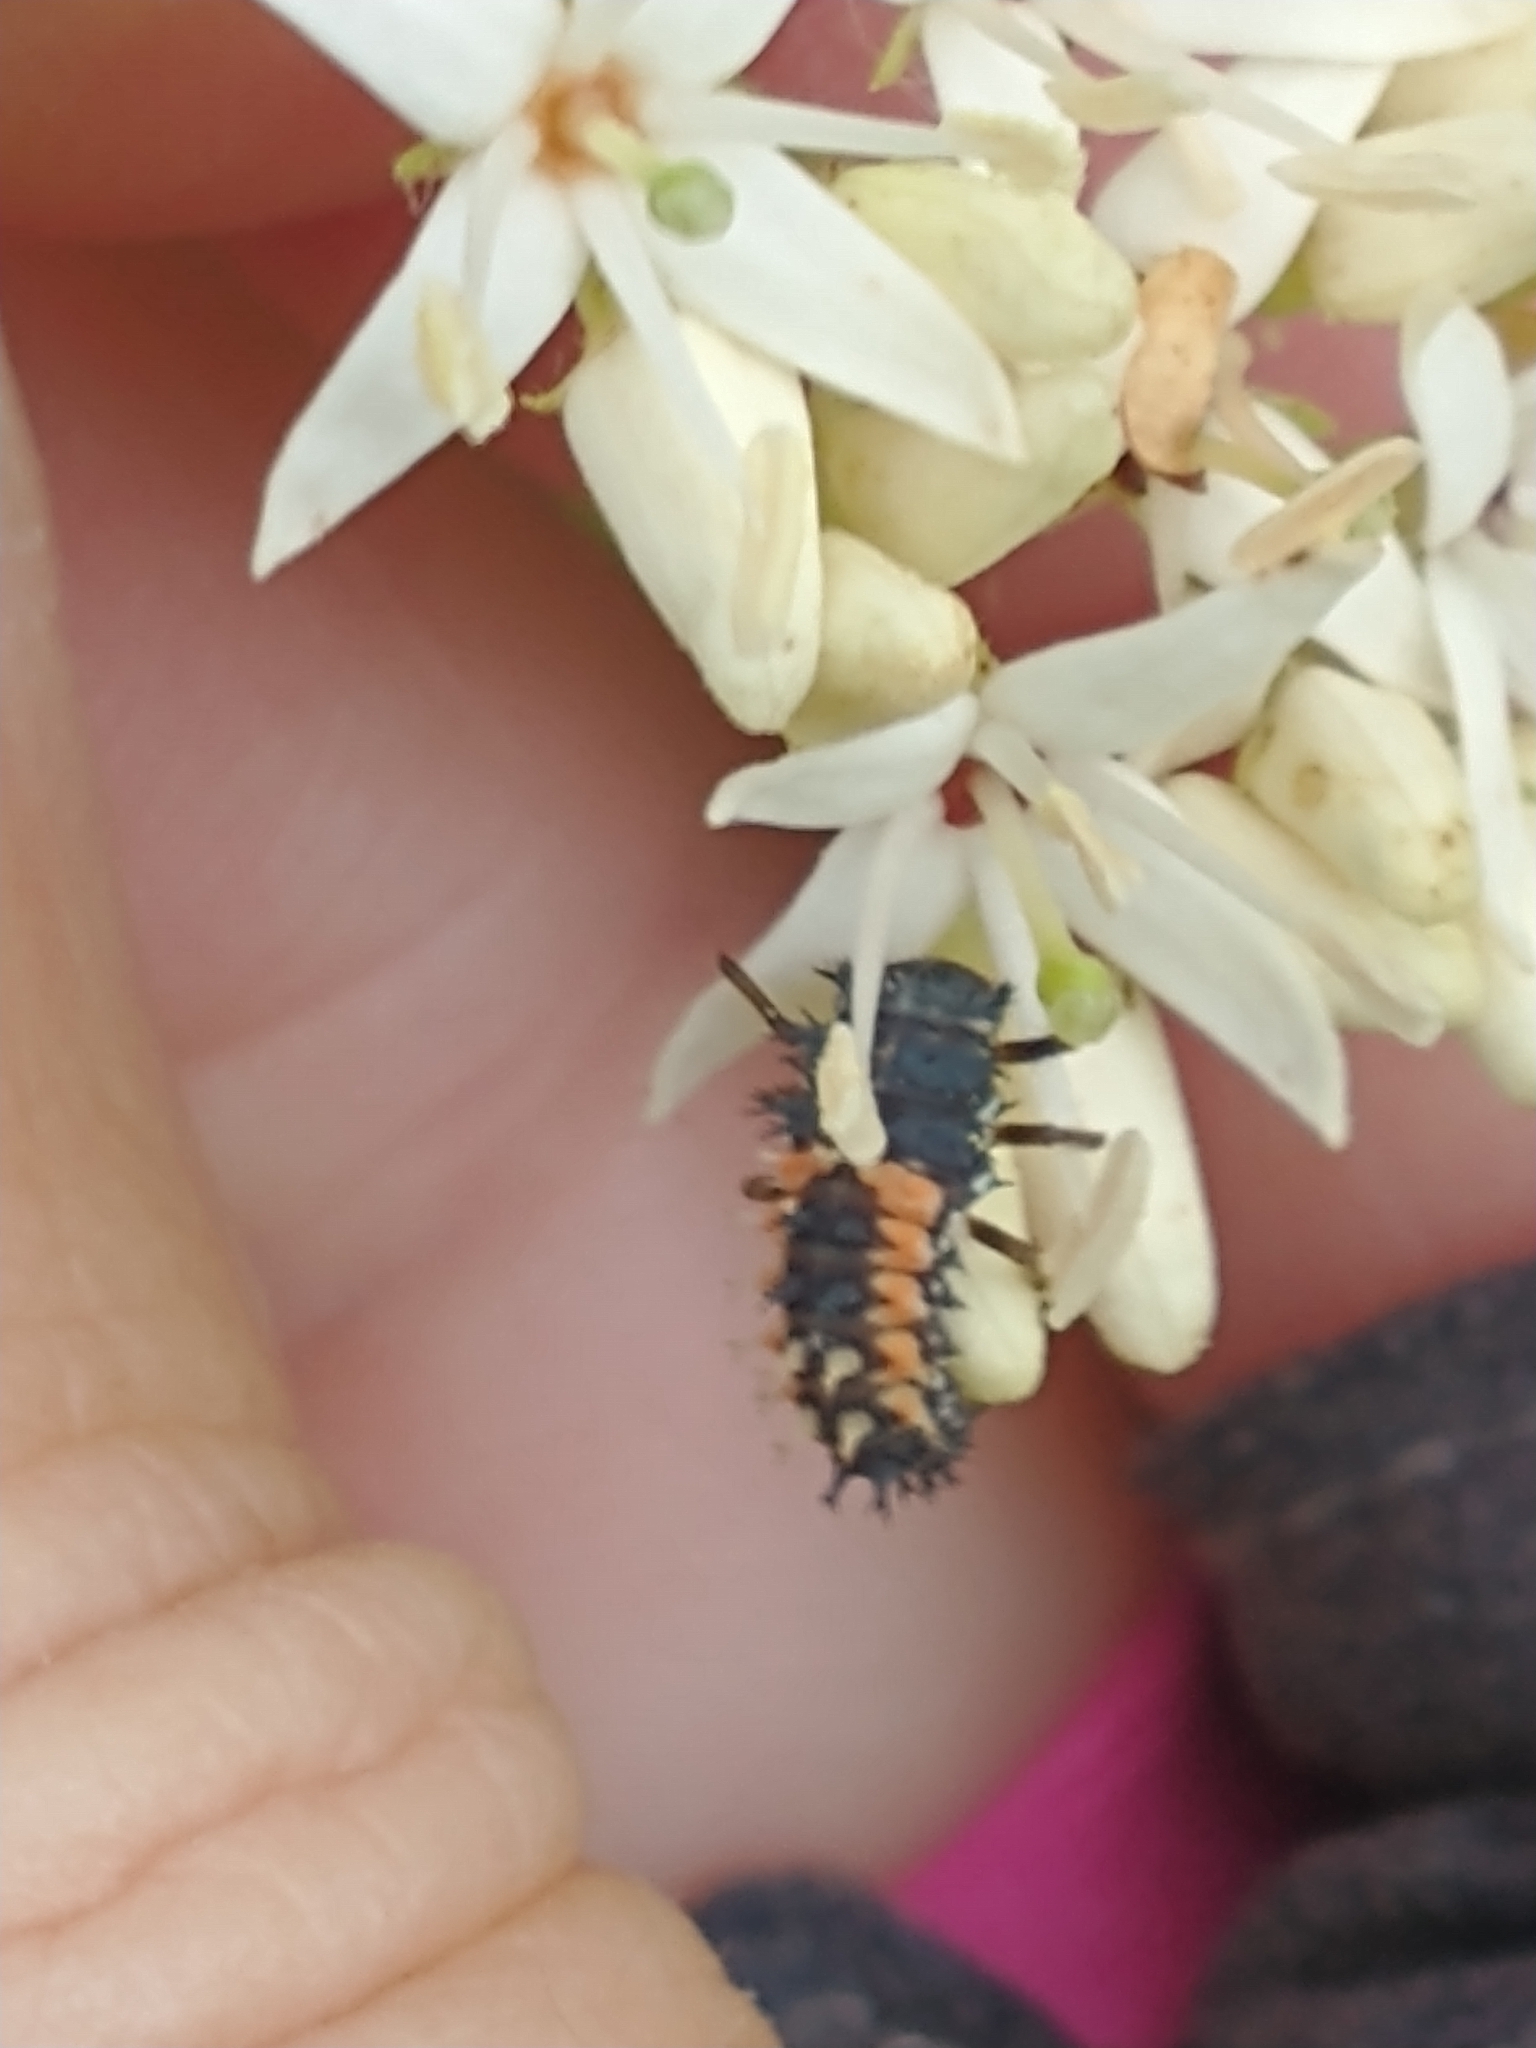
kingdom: Animalia
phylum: Arthropoda
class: Insecta
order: Coleoptera
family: Coccinellidae
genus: Harmonia
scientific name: Harmonia axyridis
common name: Harlequin ladybird
